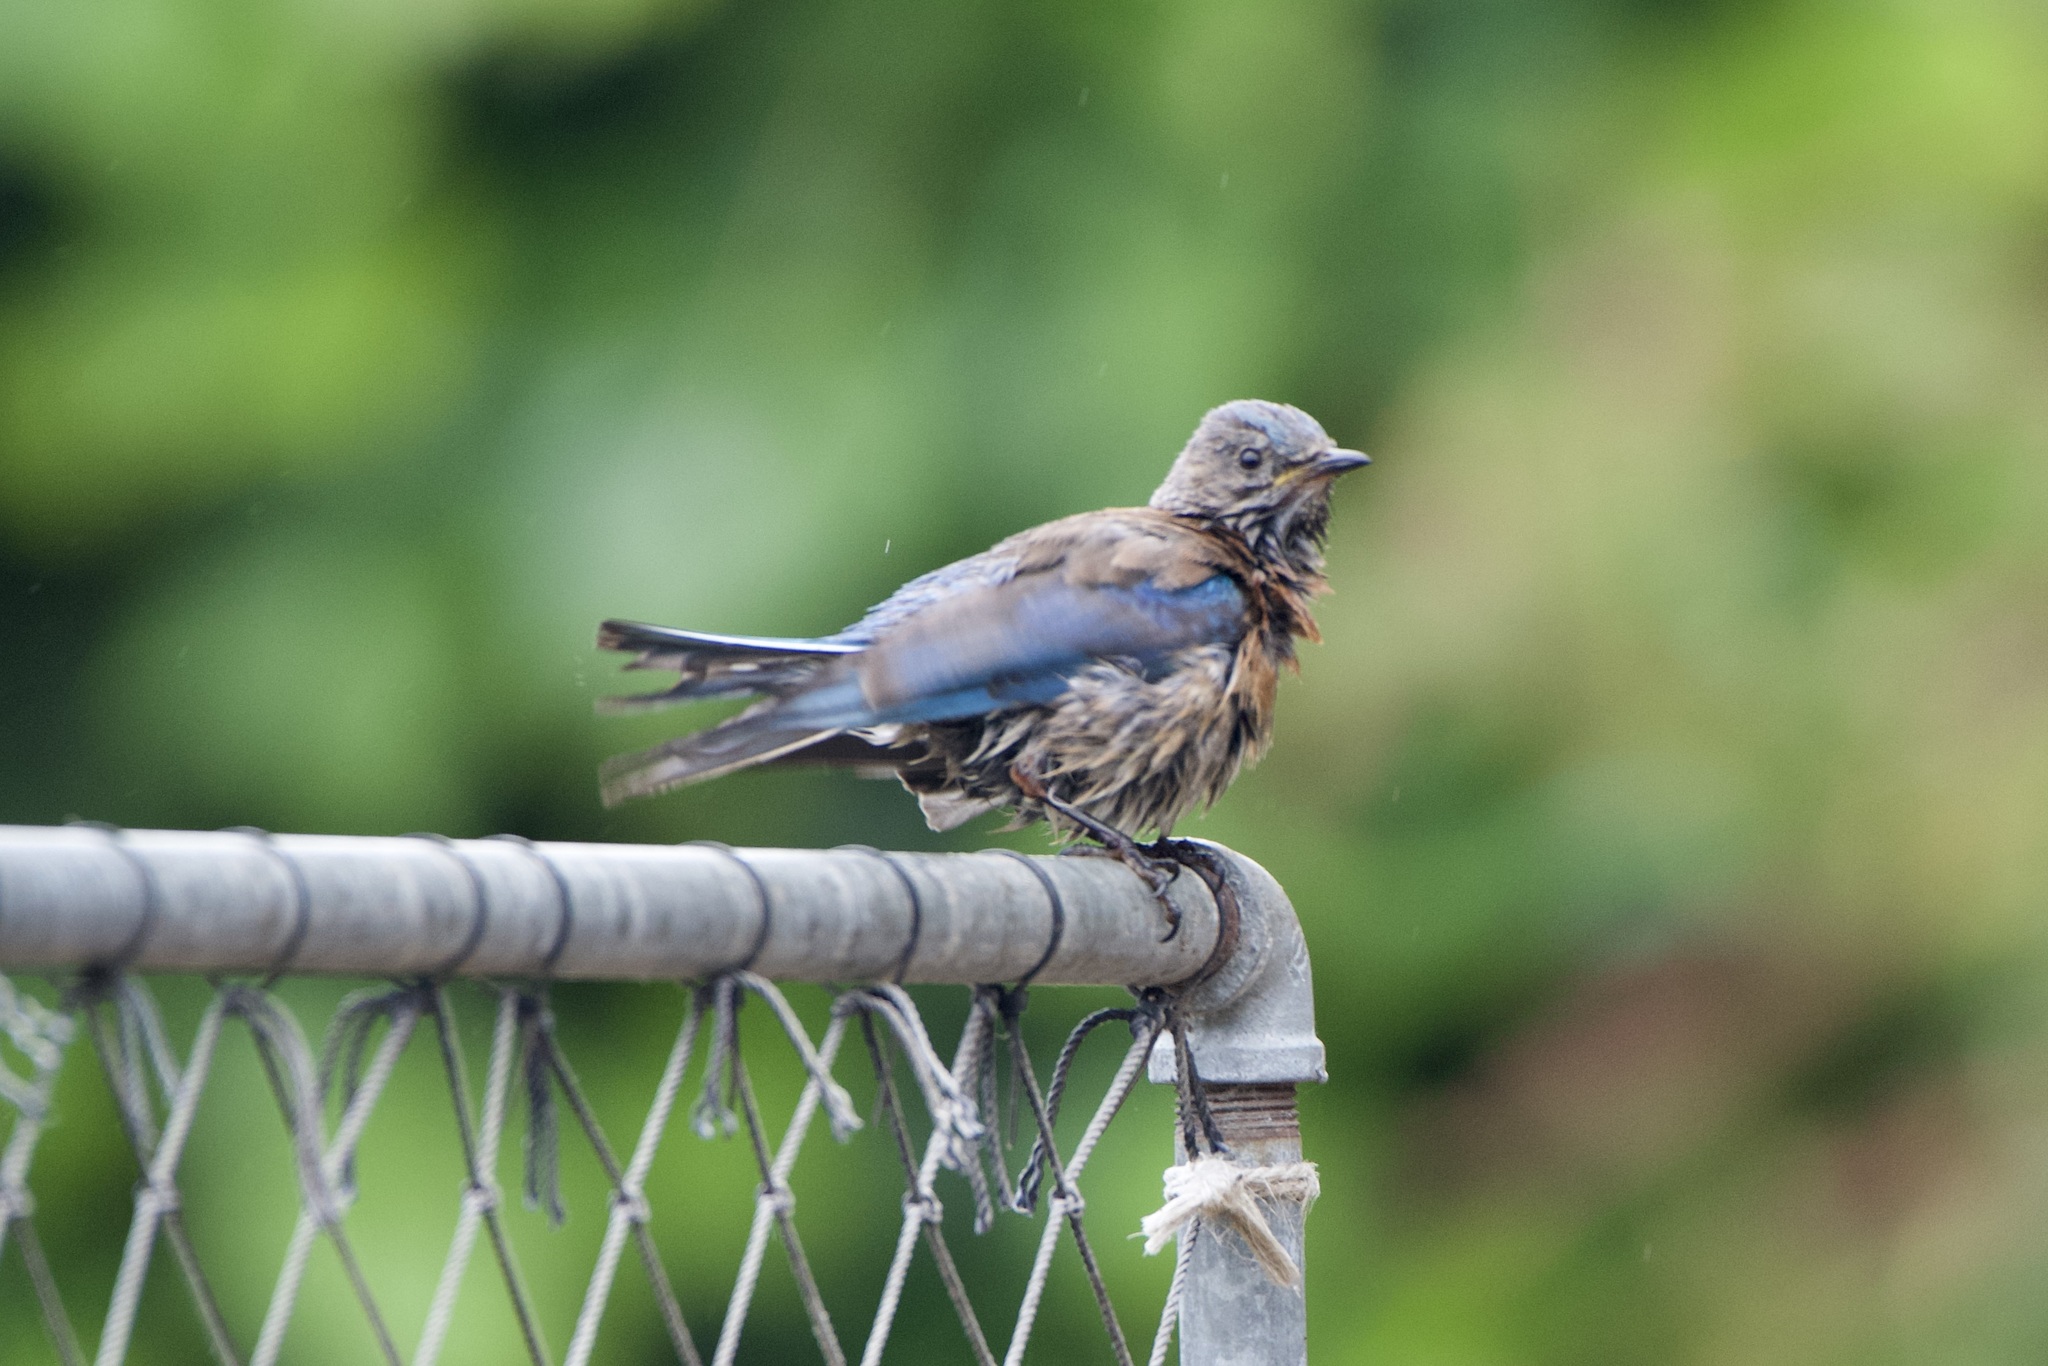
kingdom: Animalia
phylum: Chordata
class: Aves
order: Passeriformes
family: Turdidae
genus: Sialia
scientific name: Sialia mexicana
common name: Western bluebird
